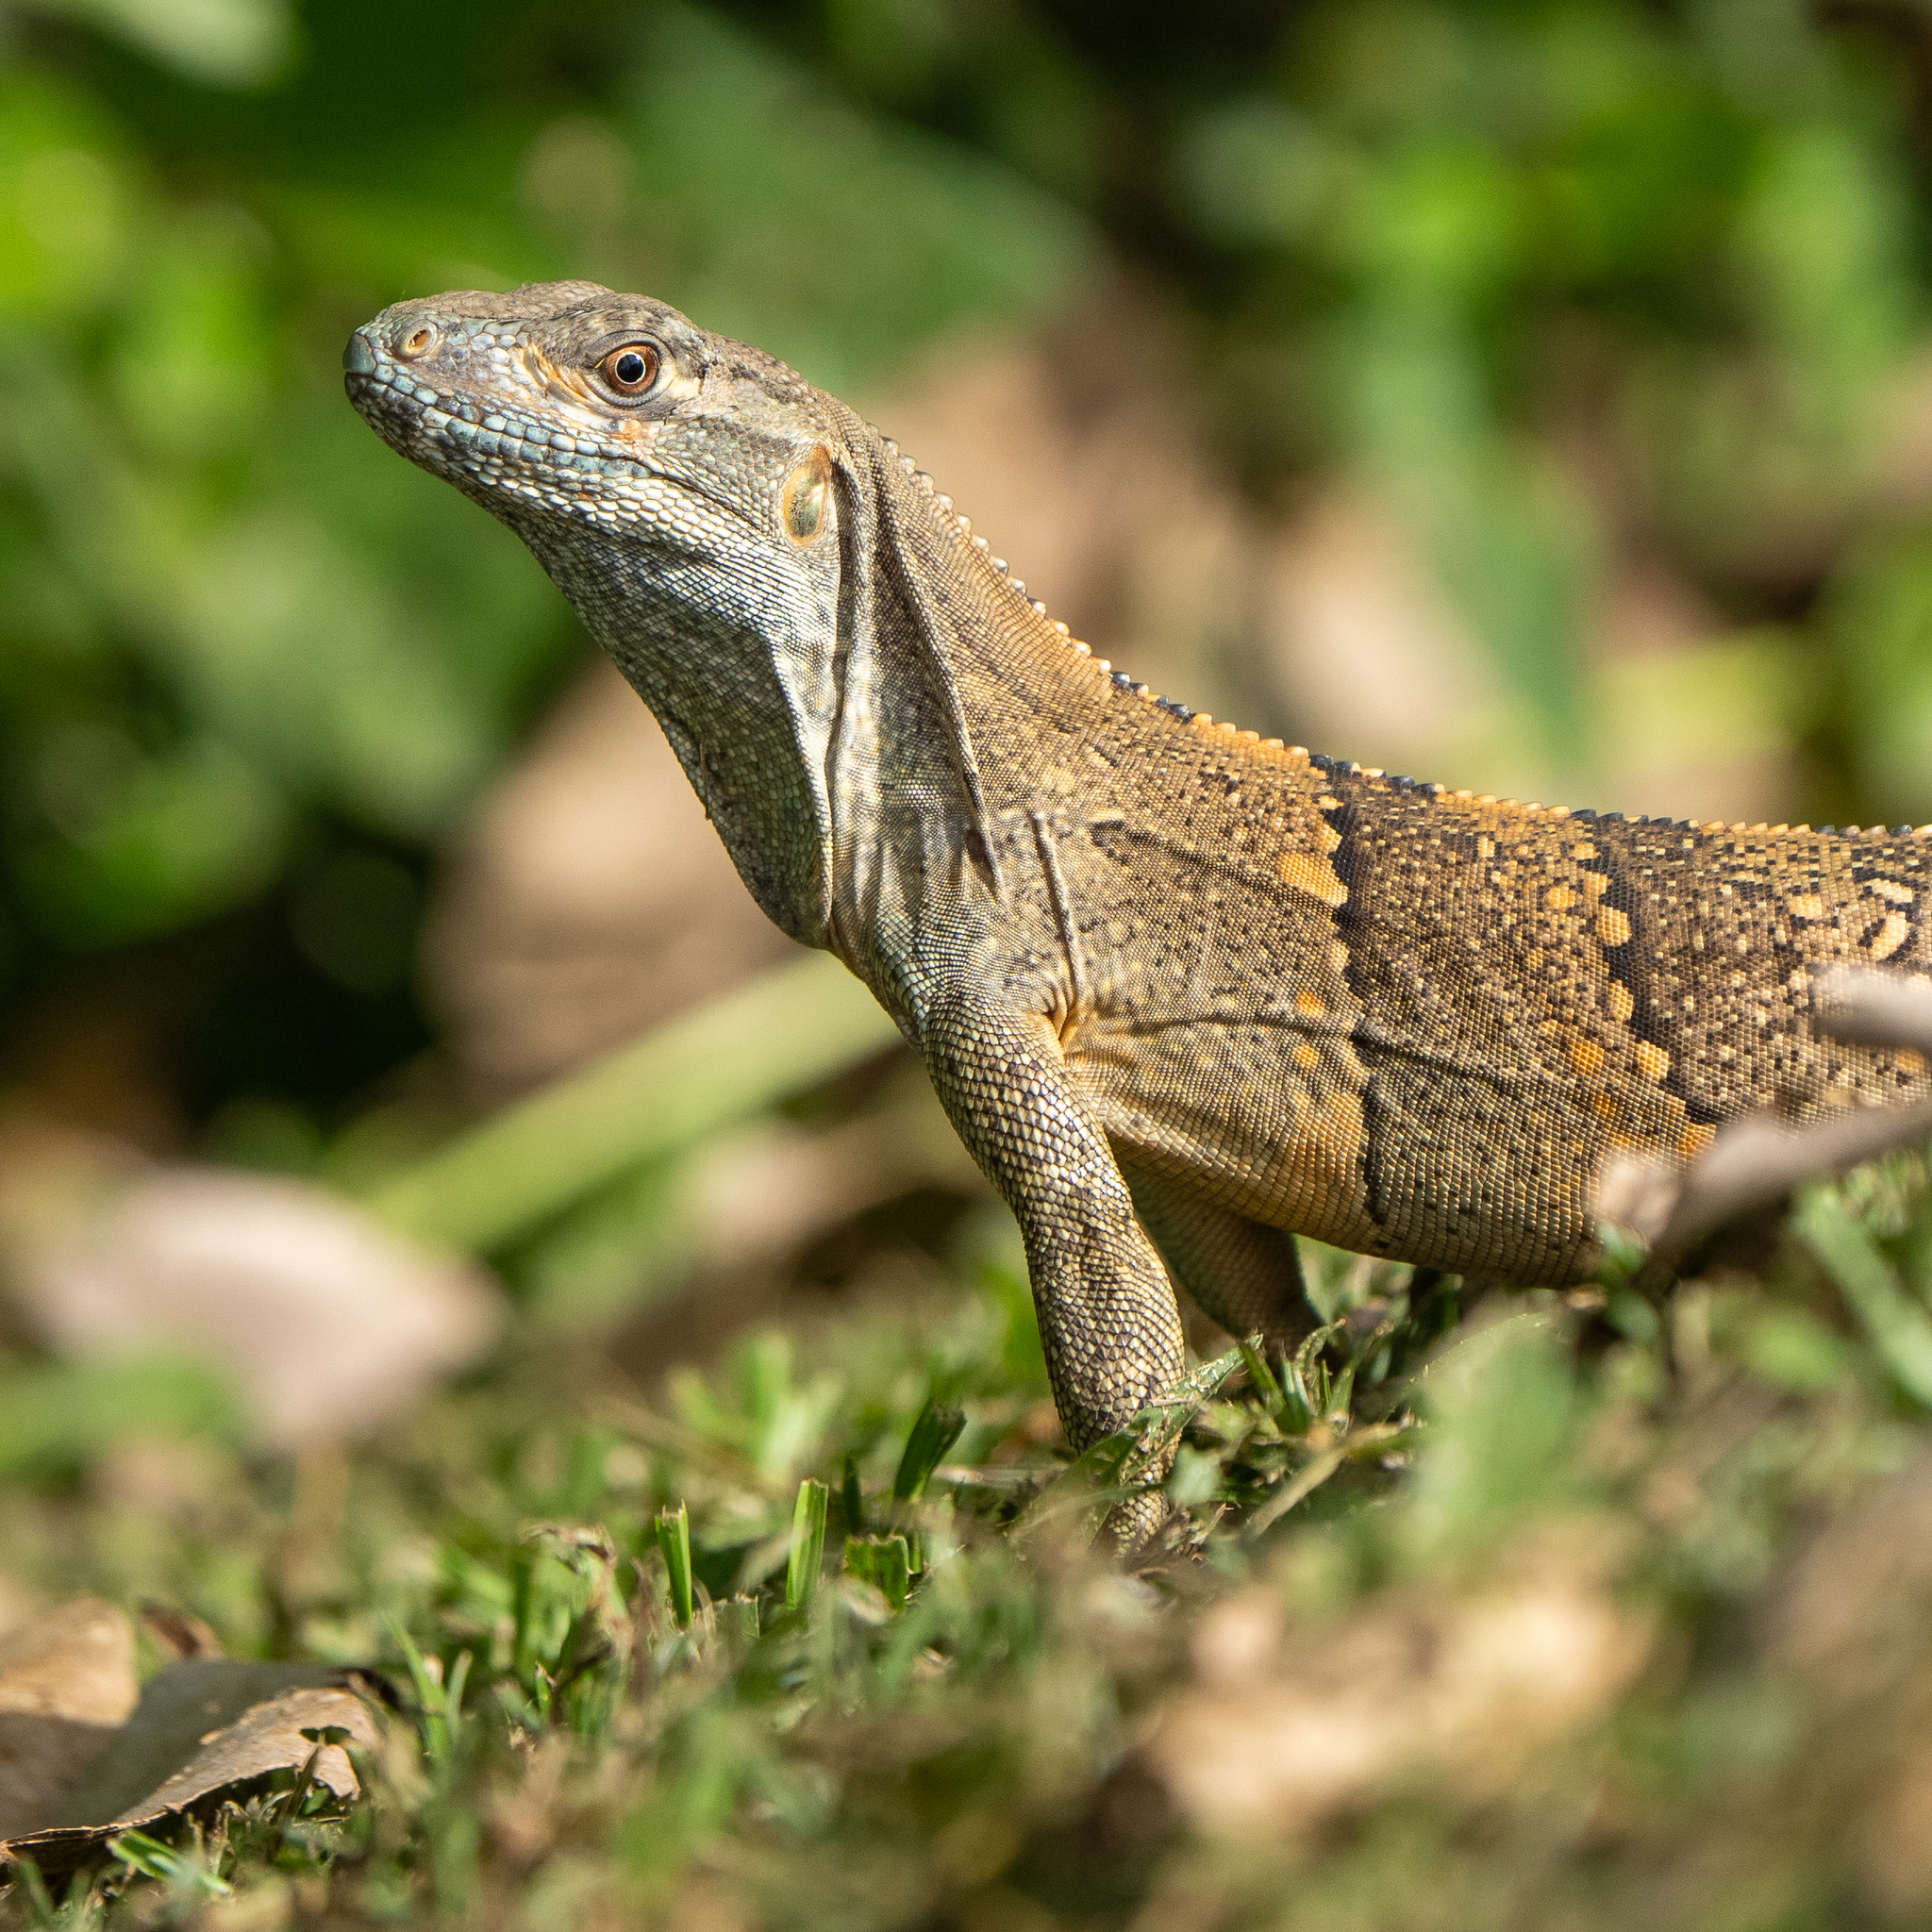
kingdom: Animalia
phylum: Chordata
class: Squamata
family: Iguanidae
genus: Ctenosaura
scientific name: Ctenosaura similis
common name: Black spiny-tailed iguana
